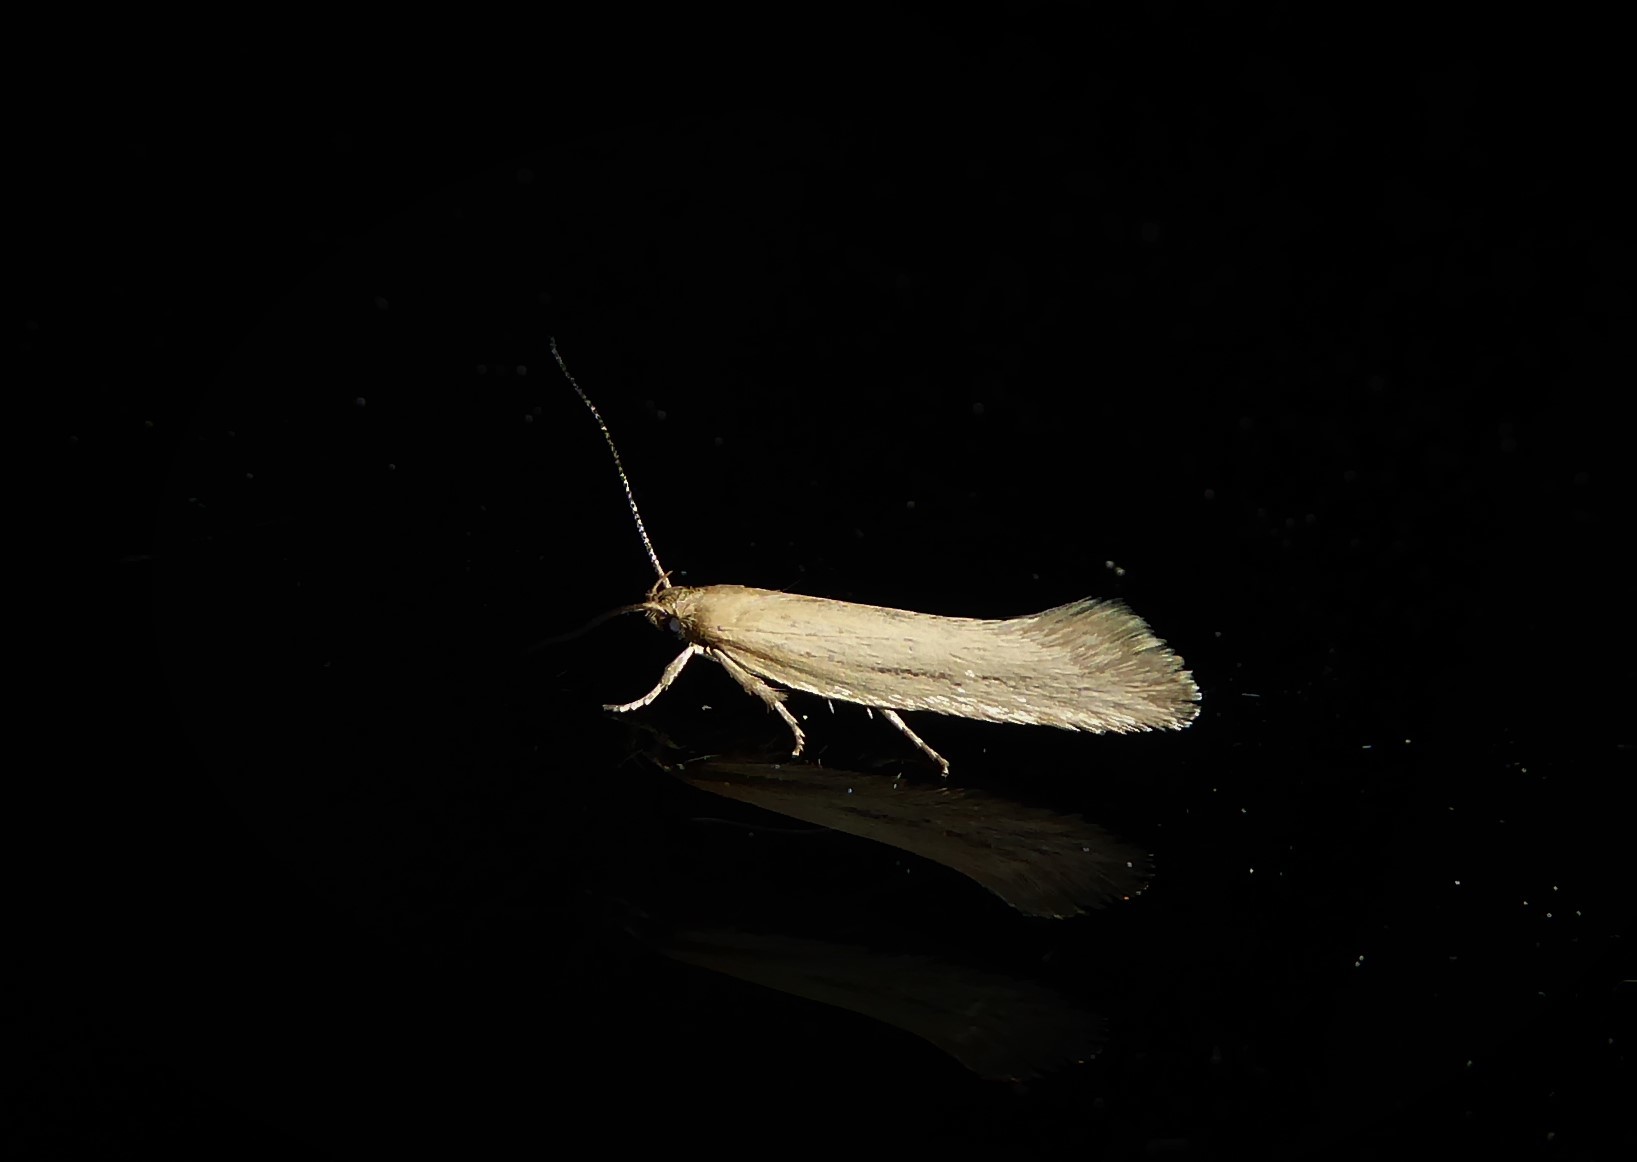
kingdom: Animalia
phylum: Arthropoda
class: Insecta
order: Lepidoptera
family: Oecophoridae
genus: Tingena
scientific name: Tingena maranta
